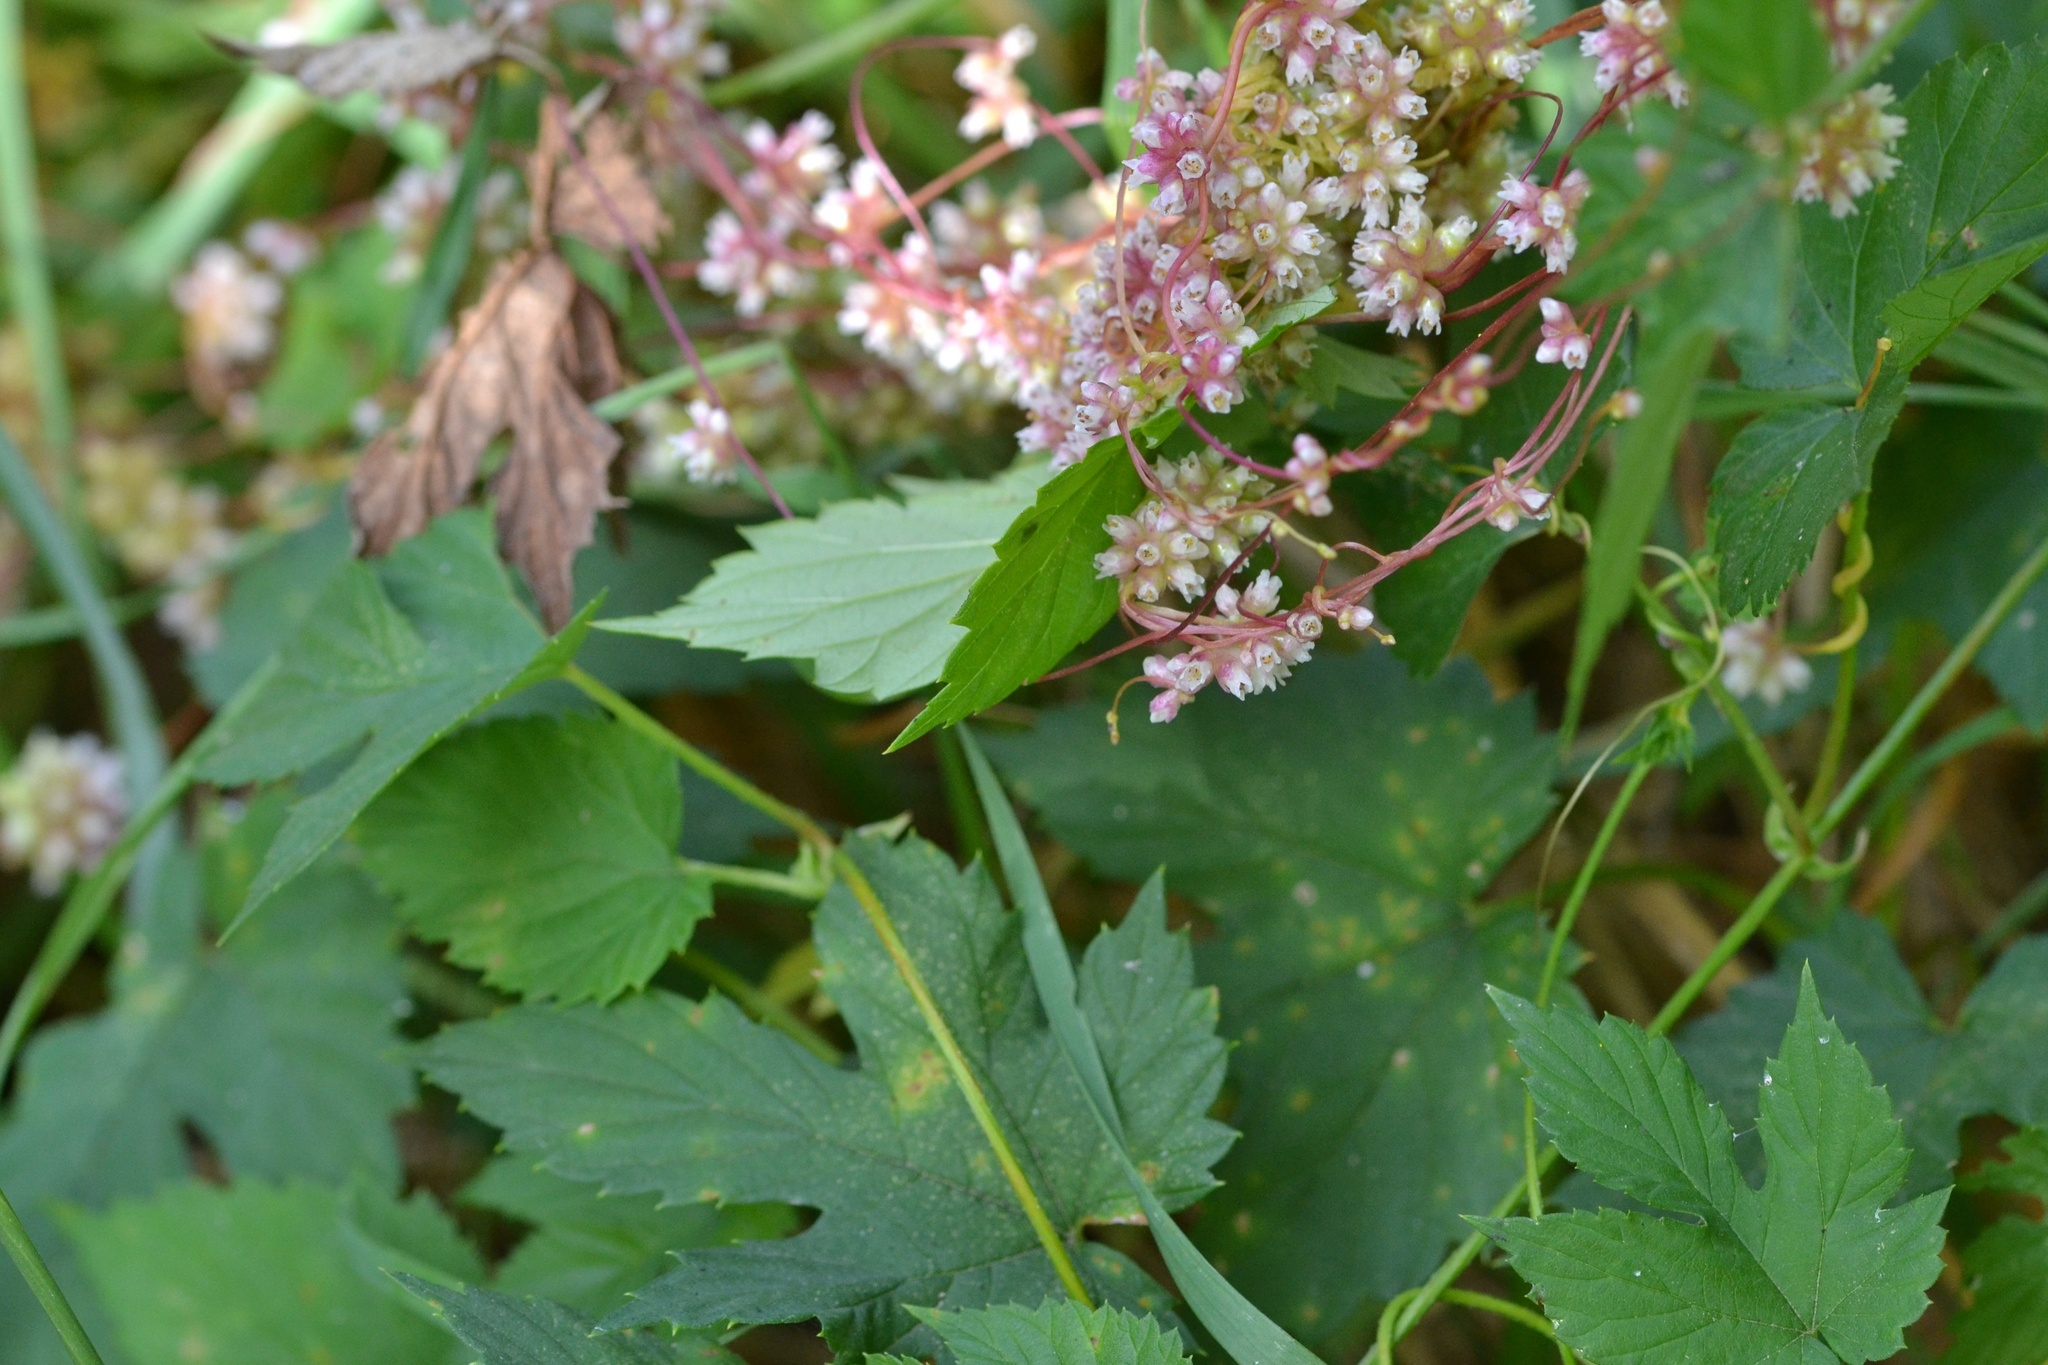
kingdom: Plantae
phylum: Tracheophyta
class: Magnoliopsida
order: Solanales
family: Convolvulaceae
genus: Cuscuta
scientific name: Cuscuta europaea
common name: Greater dodder
